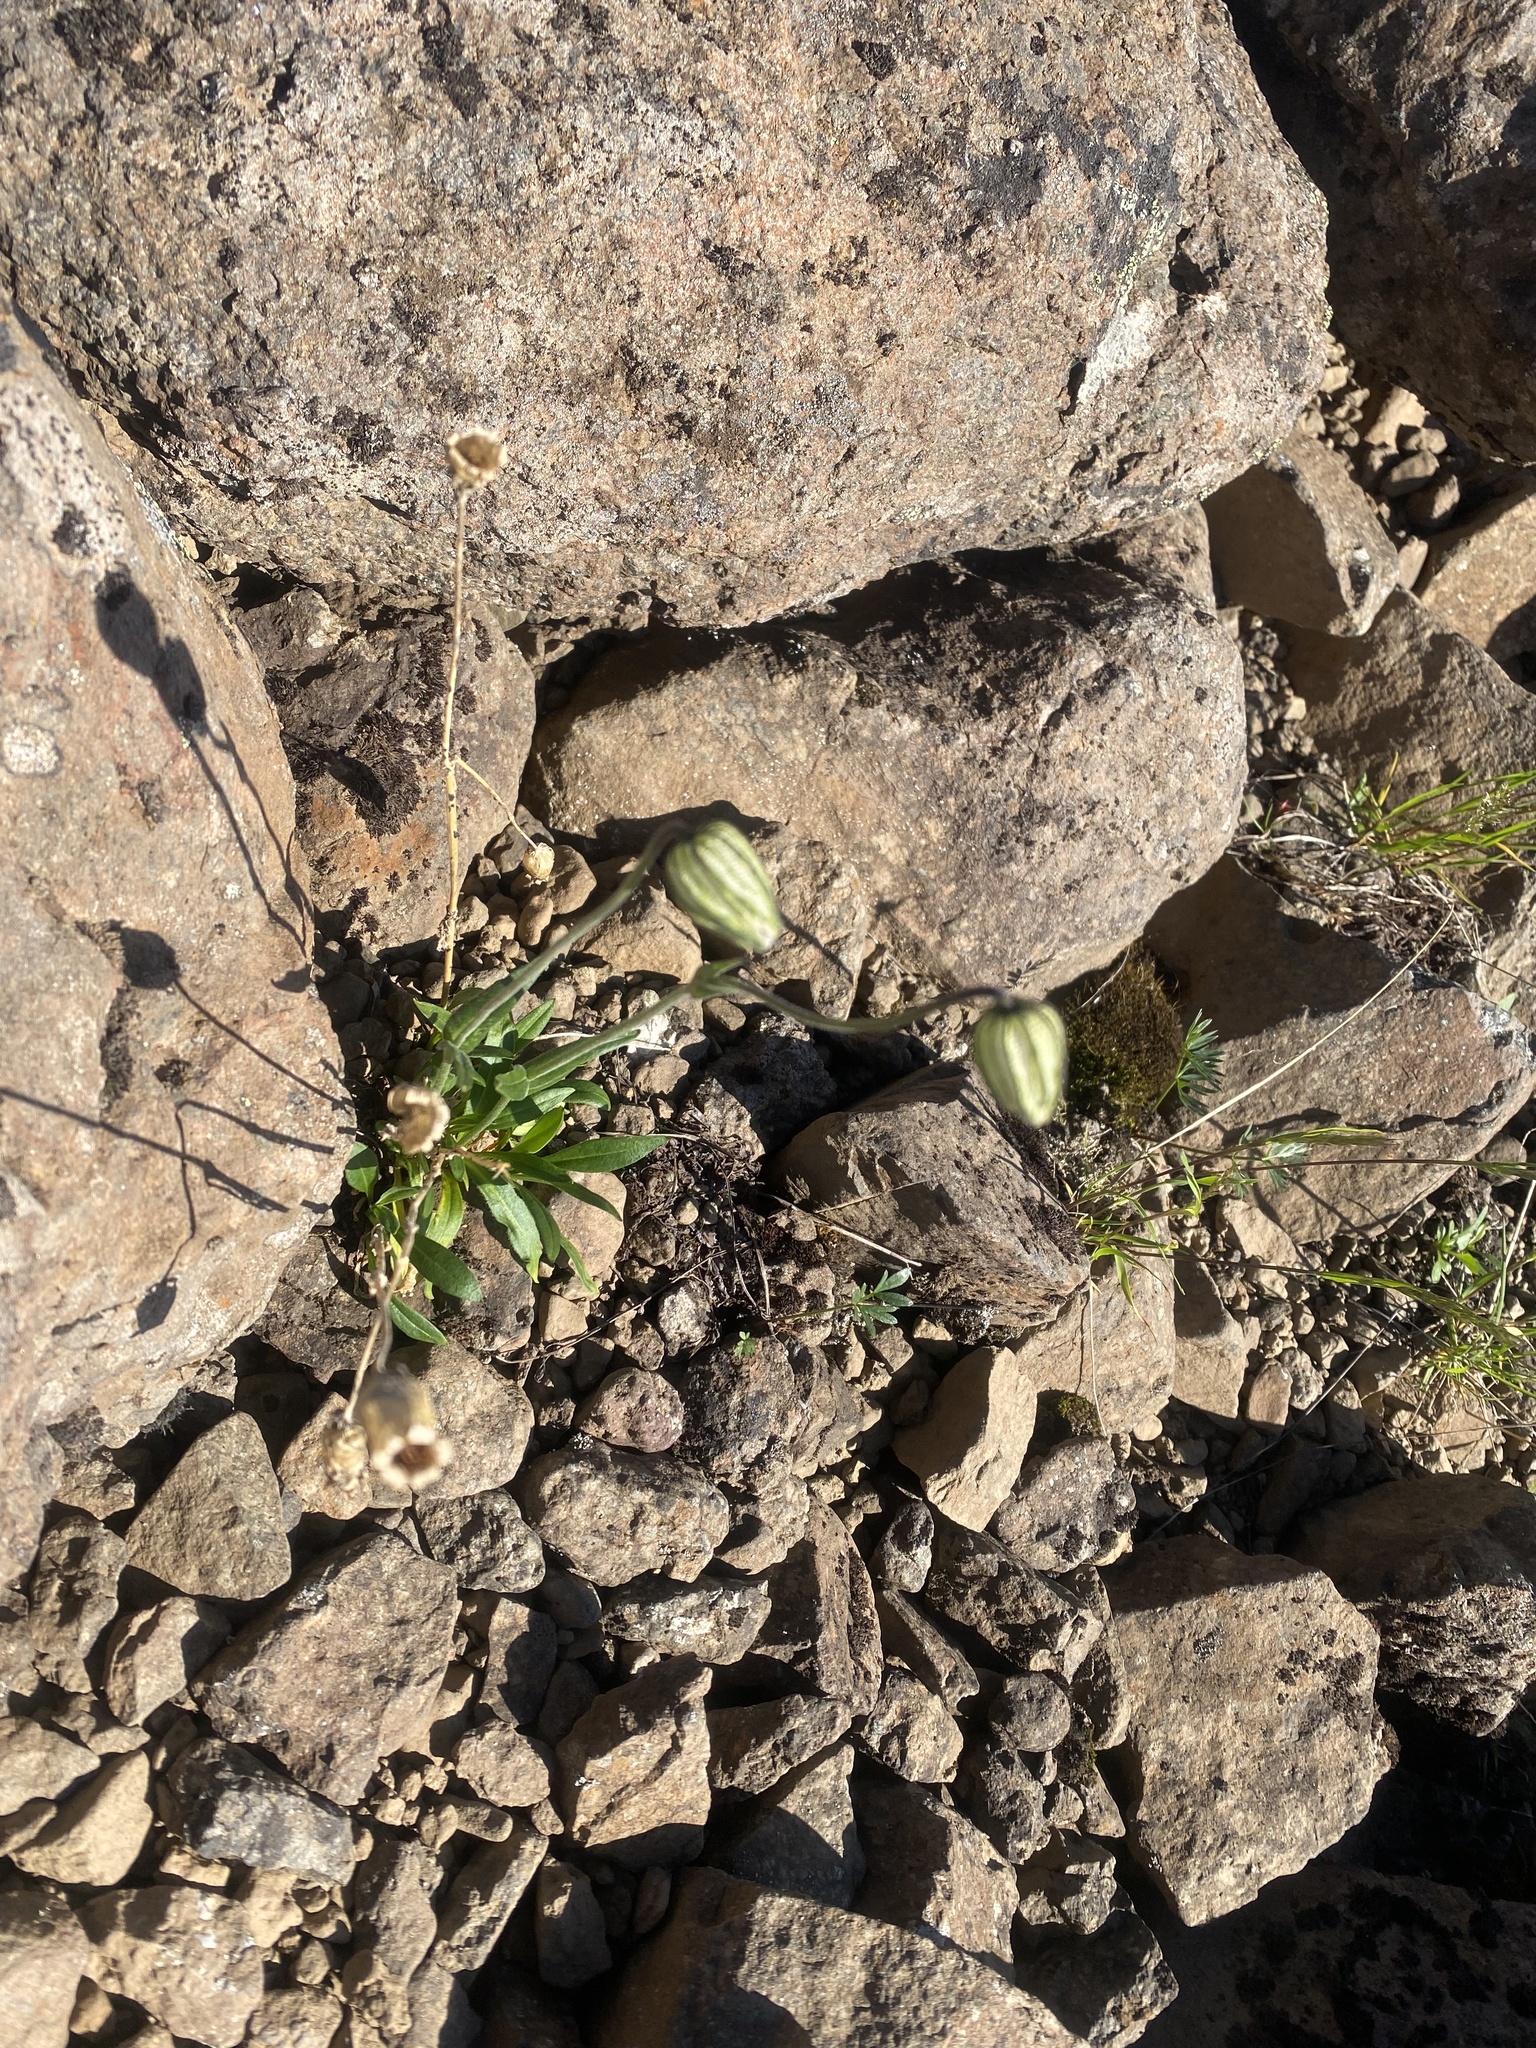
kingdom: Plantae
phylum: Tracheophyta
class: Magnoliopsida
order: Caryophyllales
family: Caryophyllaceae
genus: Silene
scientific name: Silene wahlbergella
